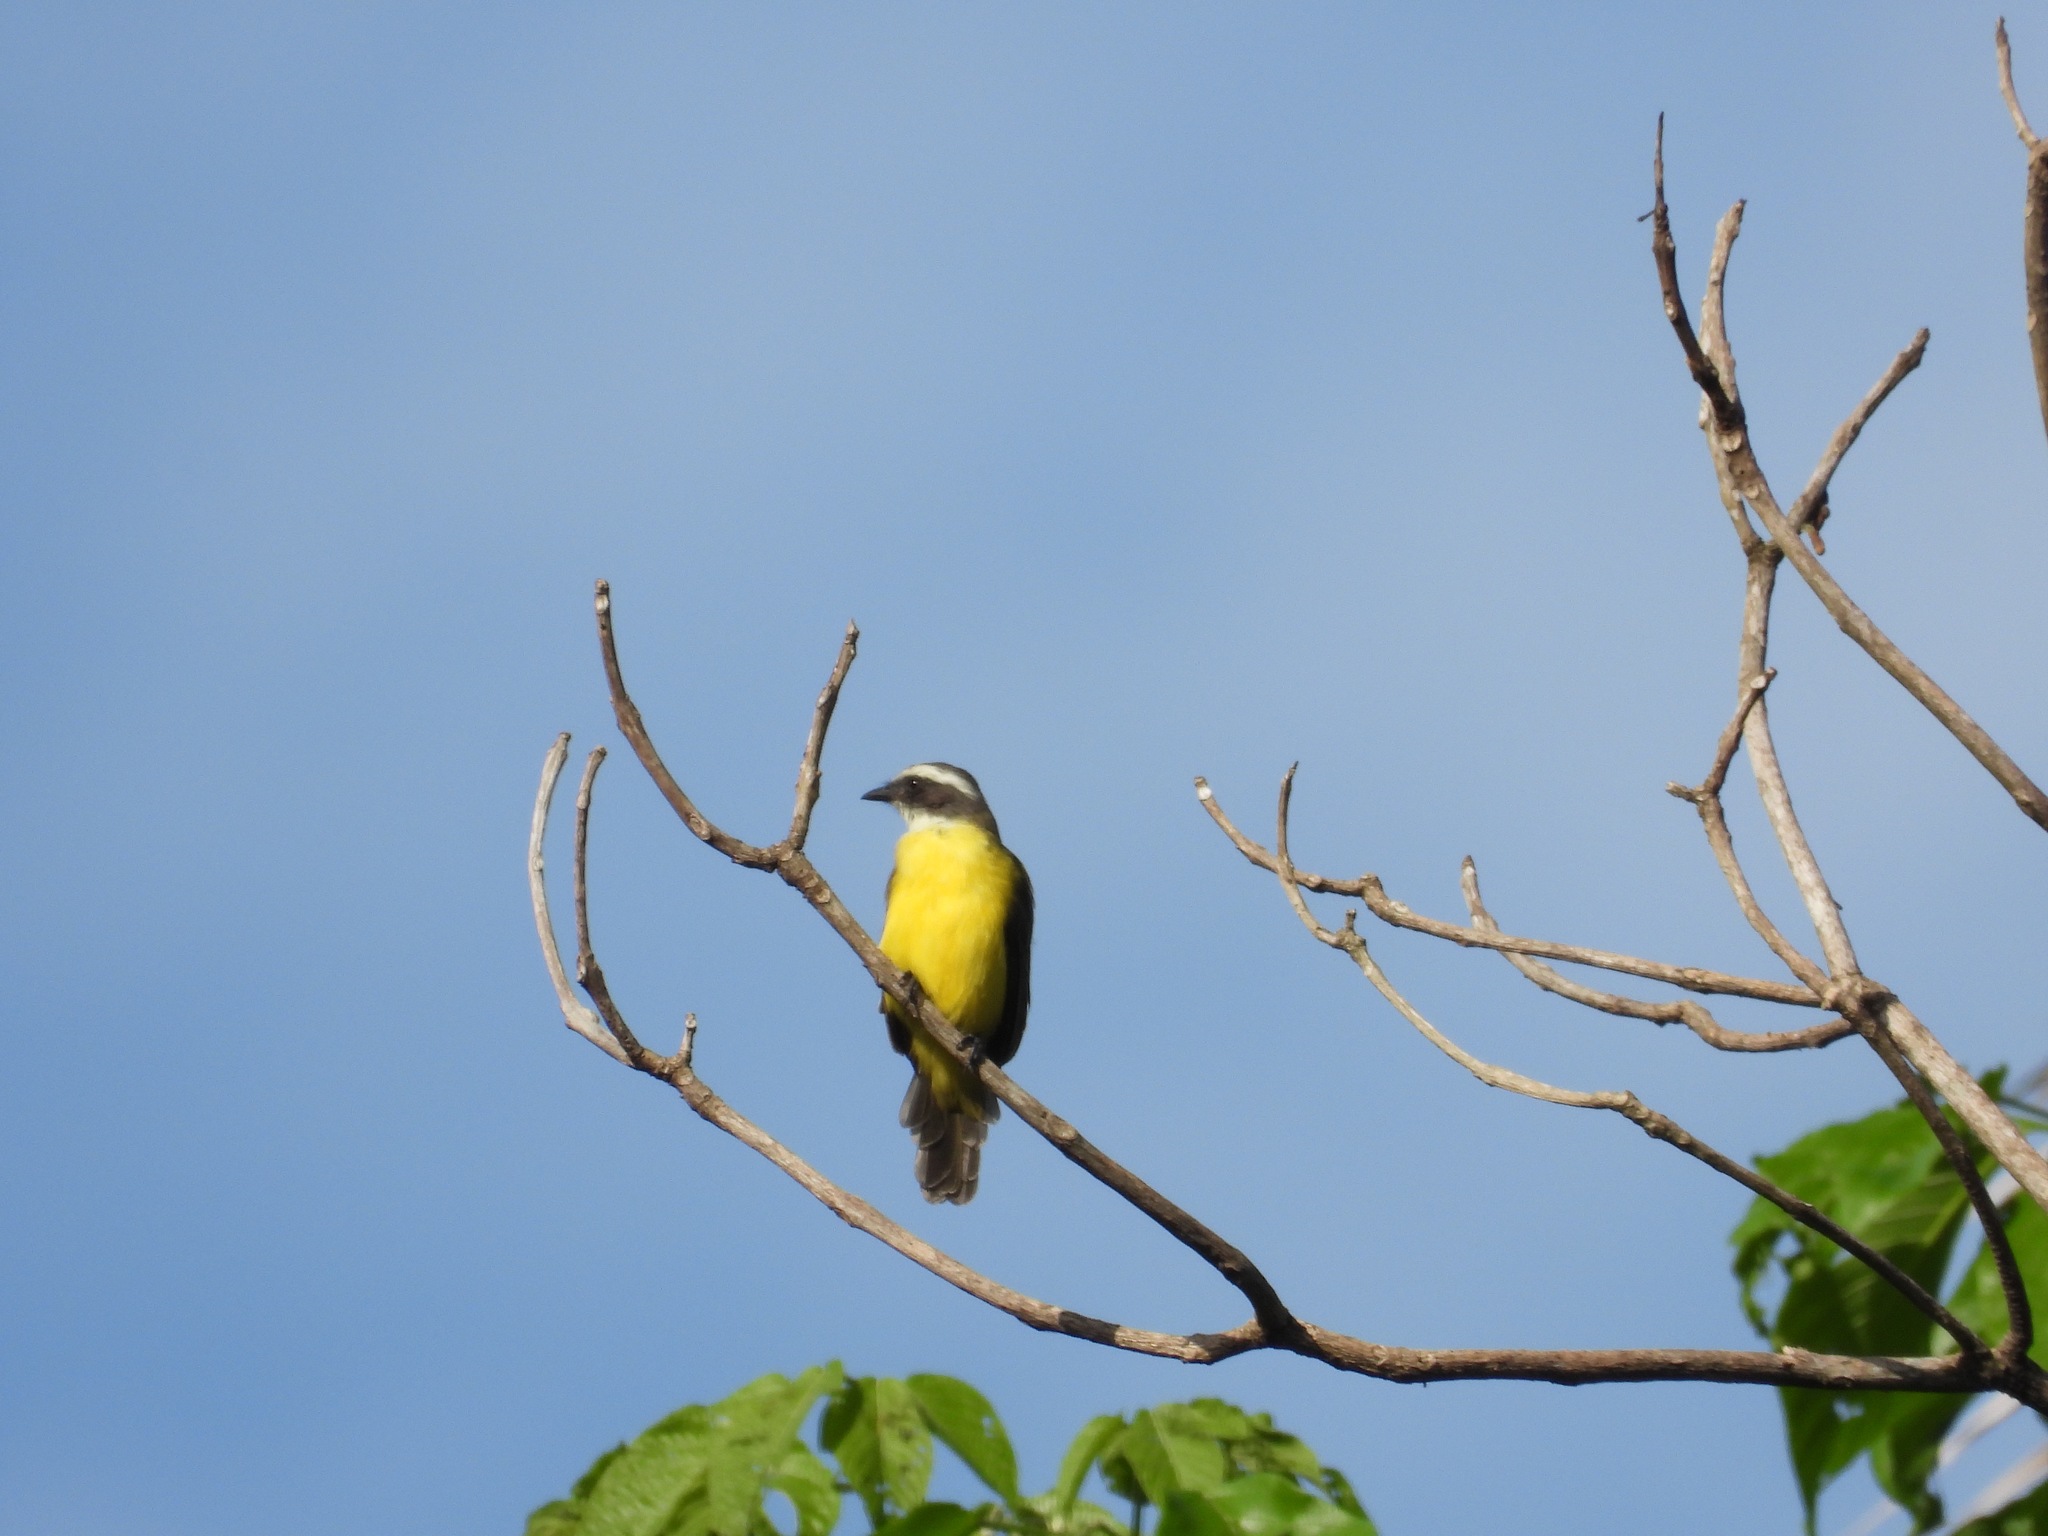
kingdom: Animalia
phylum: Chordata
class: Aves
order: Passeriformes
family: Tyrannidae
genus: Myiozetetes
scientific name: Myiozetetes similis
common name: Social flycatcher
